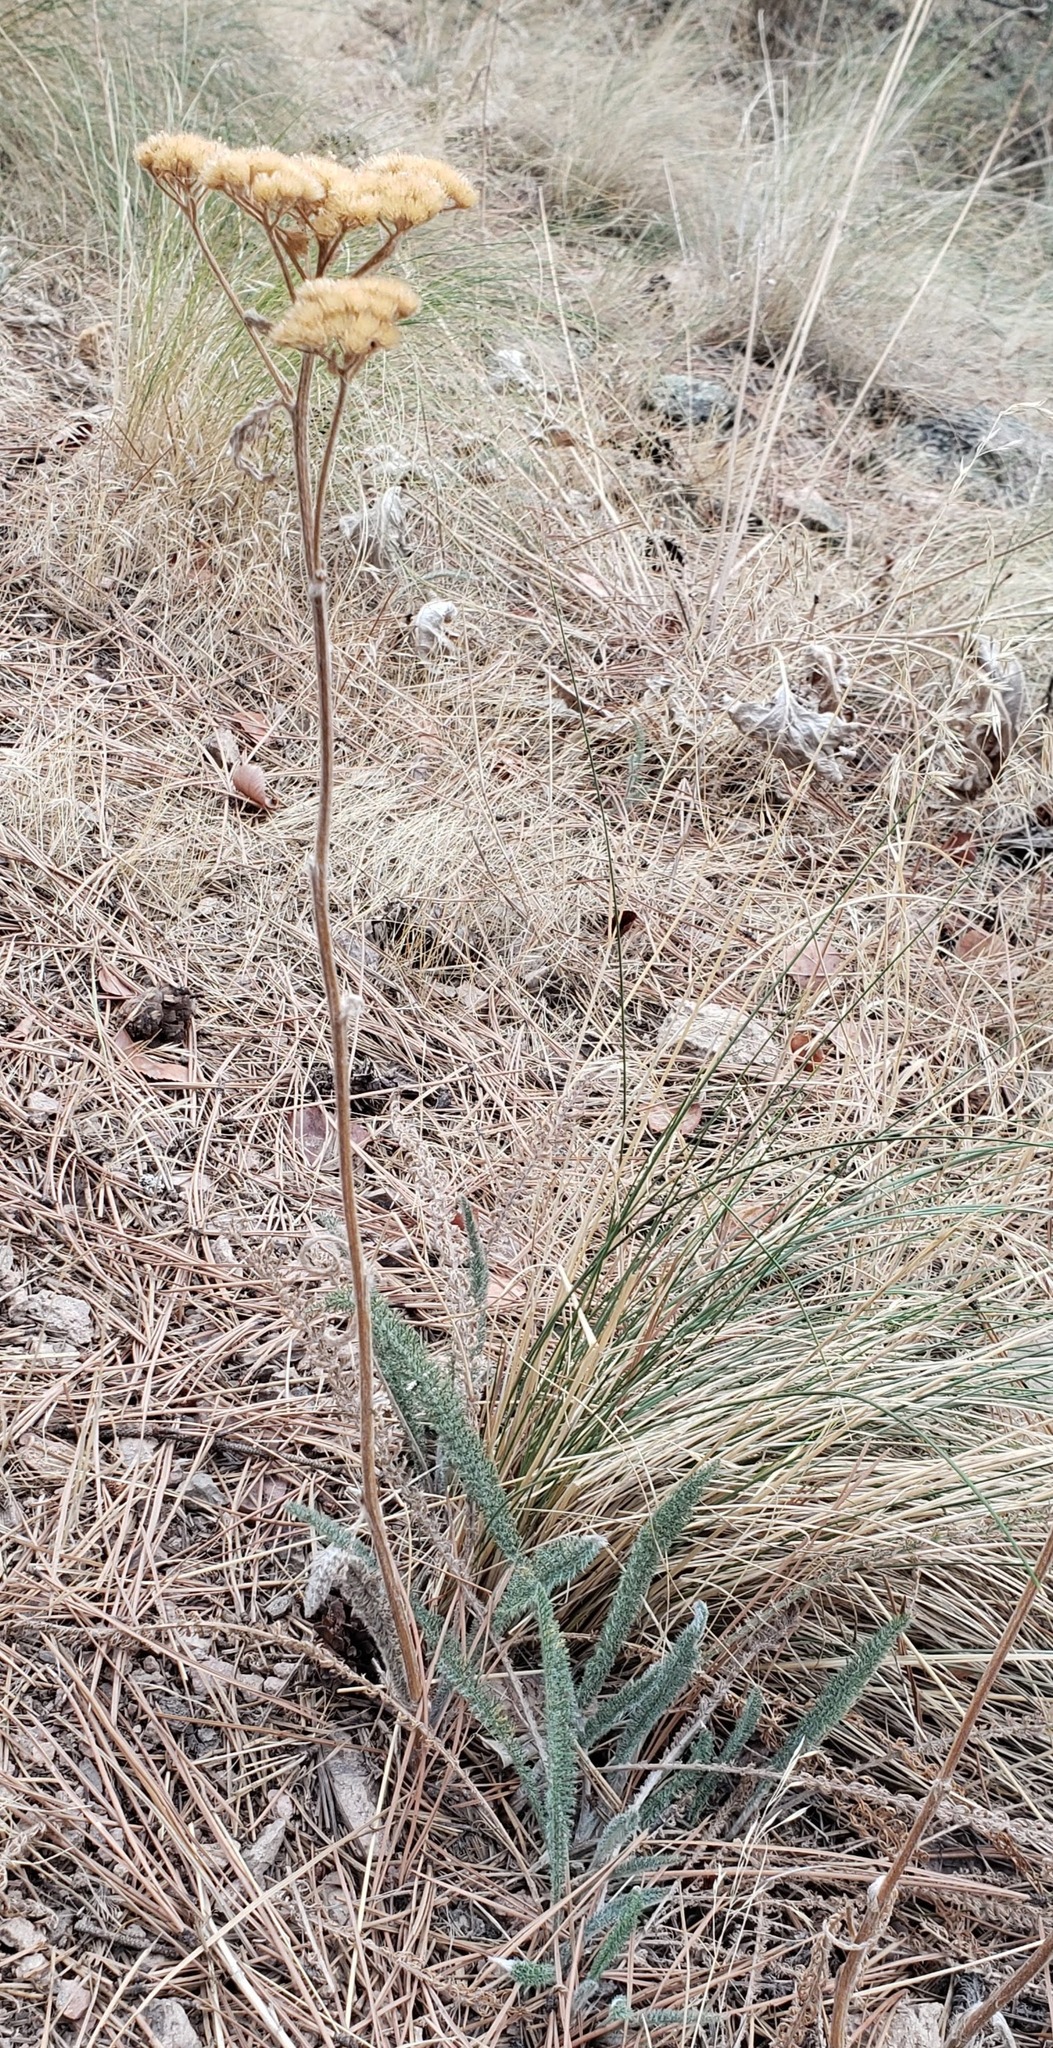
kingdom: Plantae
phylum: Tracheophyta
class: Magnoliopsida
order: Asterales
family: Asteraceae
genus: Achillea
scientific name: Achillea millefolium
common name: Yarrow
